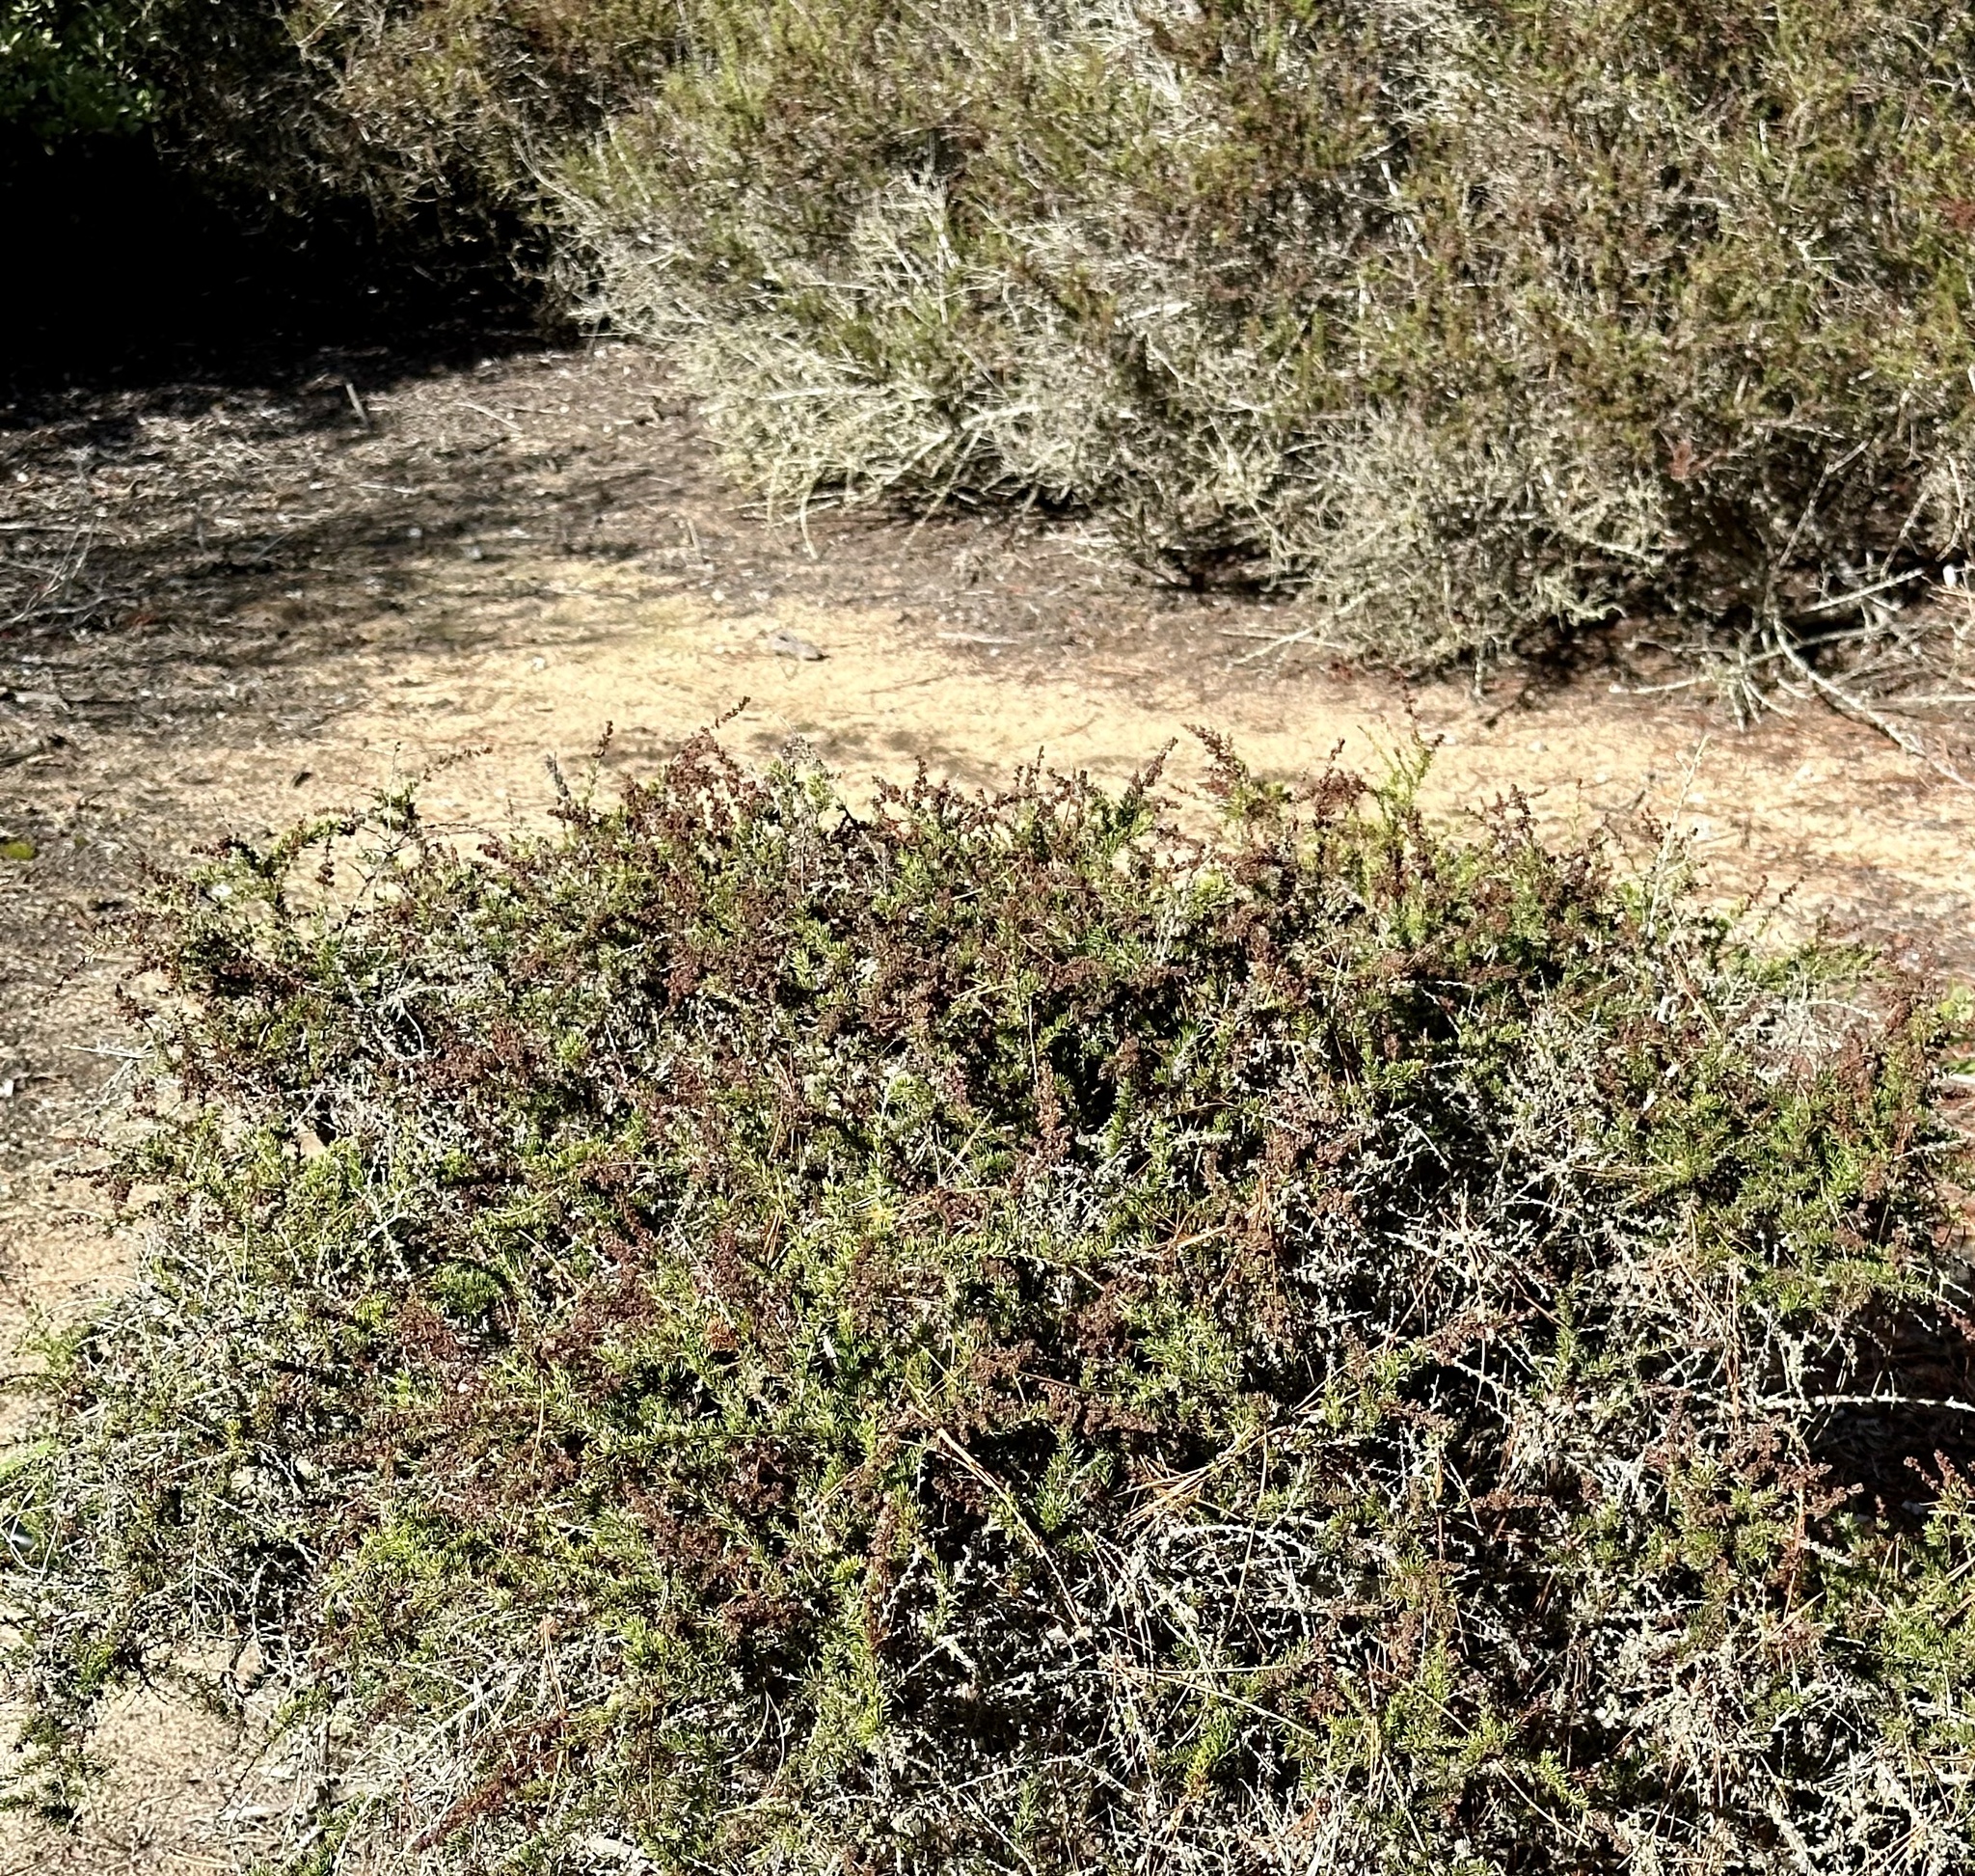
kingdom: Plantae
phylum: Tracheophyta
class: Magnoliopsida
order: Rosales
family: Rosaceae
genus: Adenostoma
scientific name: Adenostoma fasciculatum
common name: Chamise
